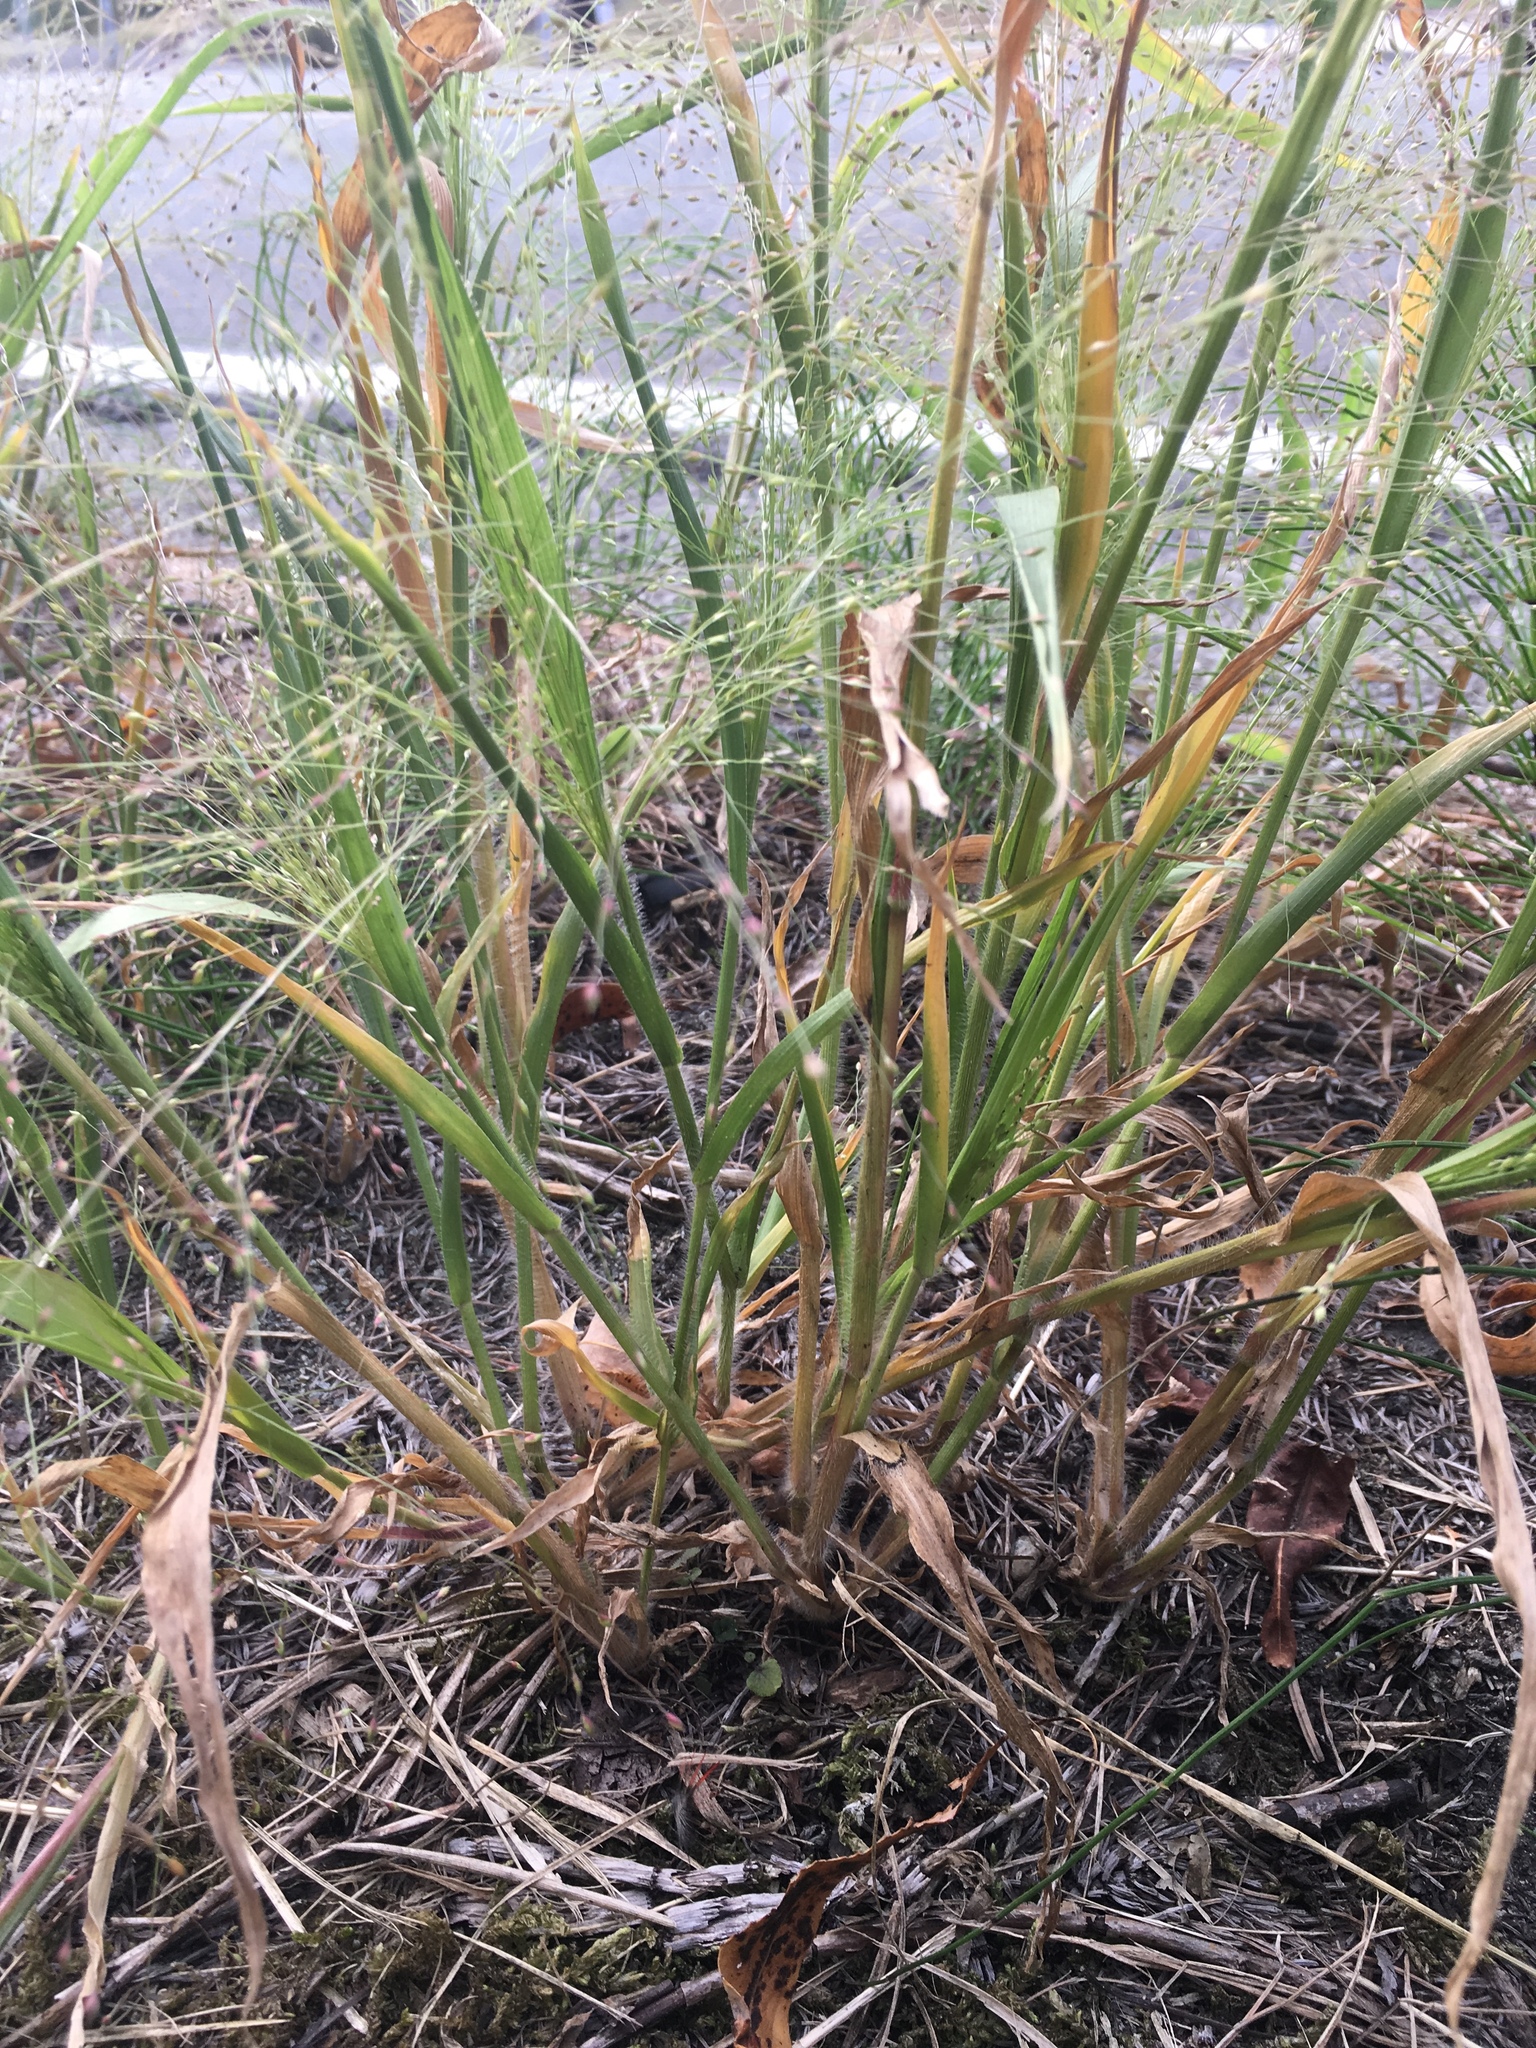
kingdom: Plantae
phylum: Tracheophyta
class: Liliopsida
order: Poales
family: Poaceae
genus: Panicum
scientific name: Panicum capillare
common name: Witch-grass
